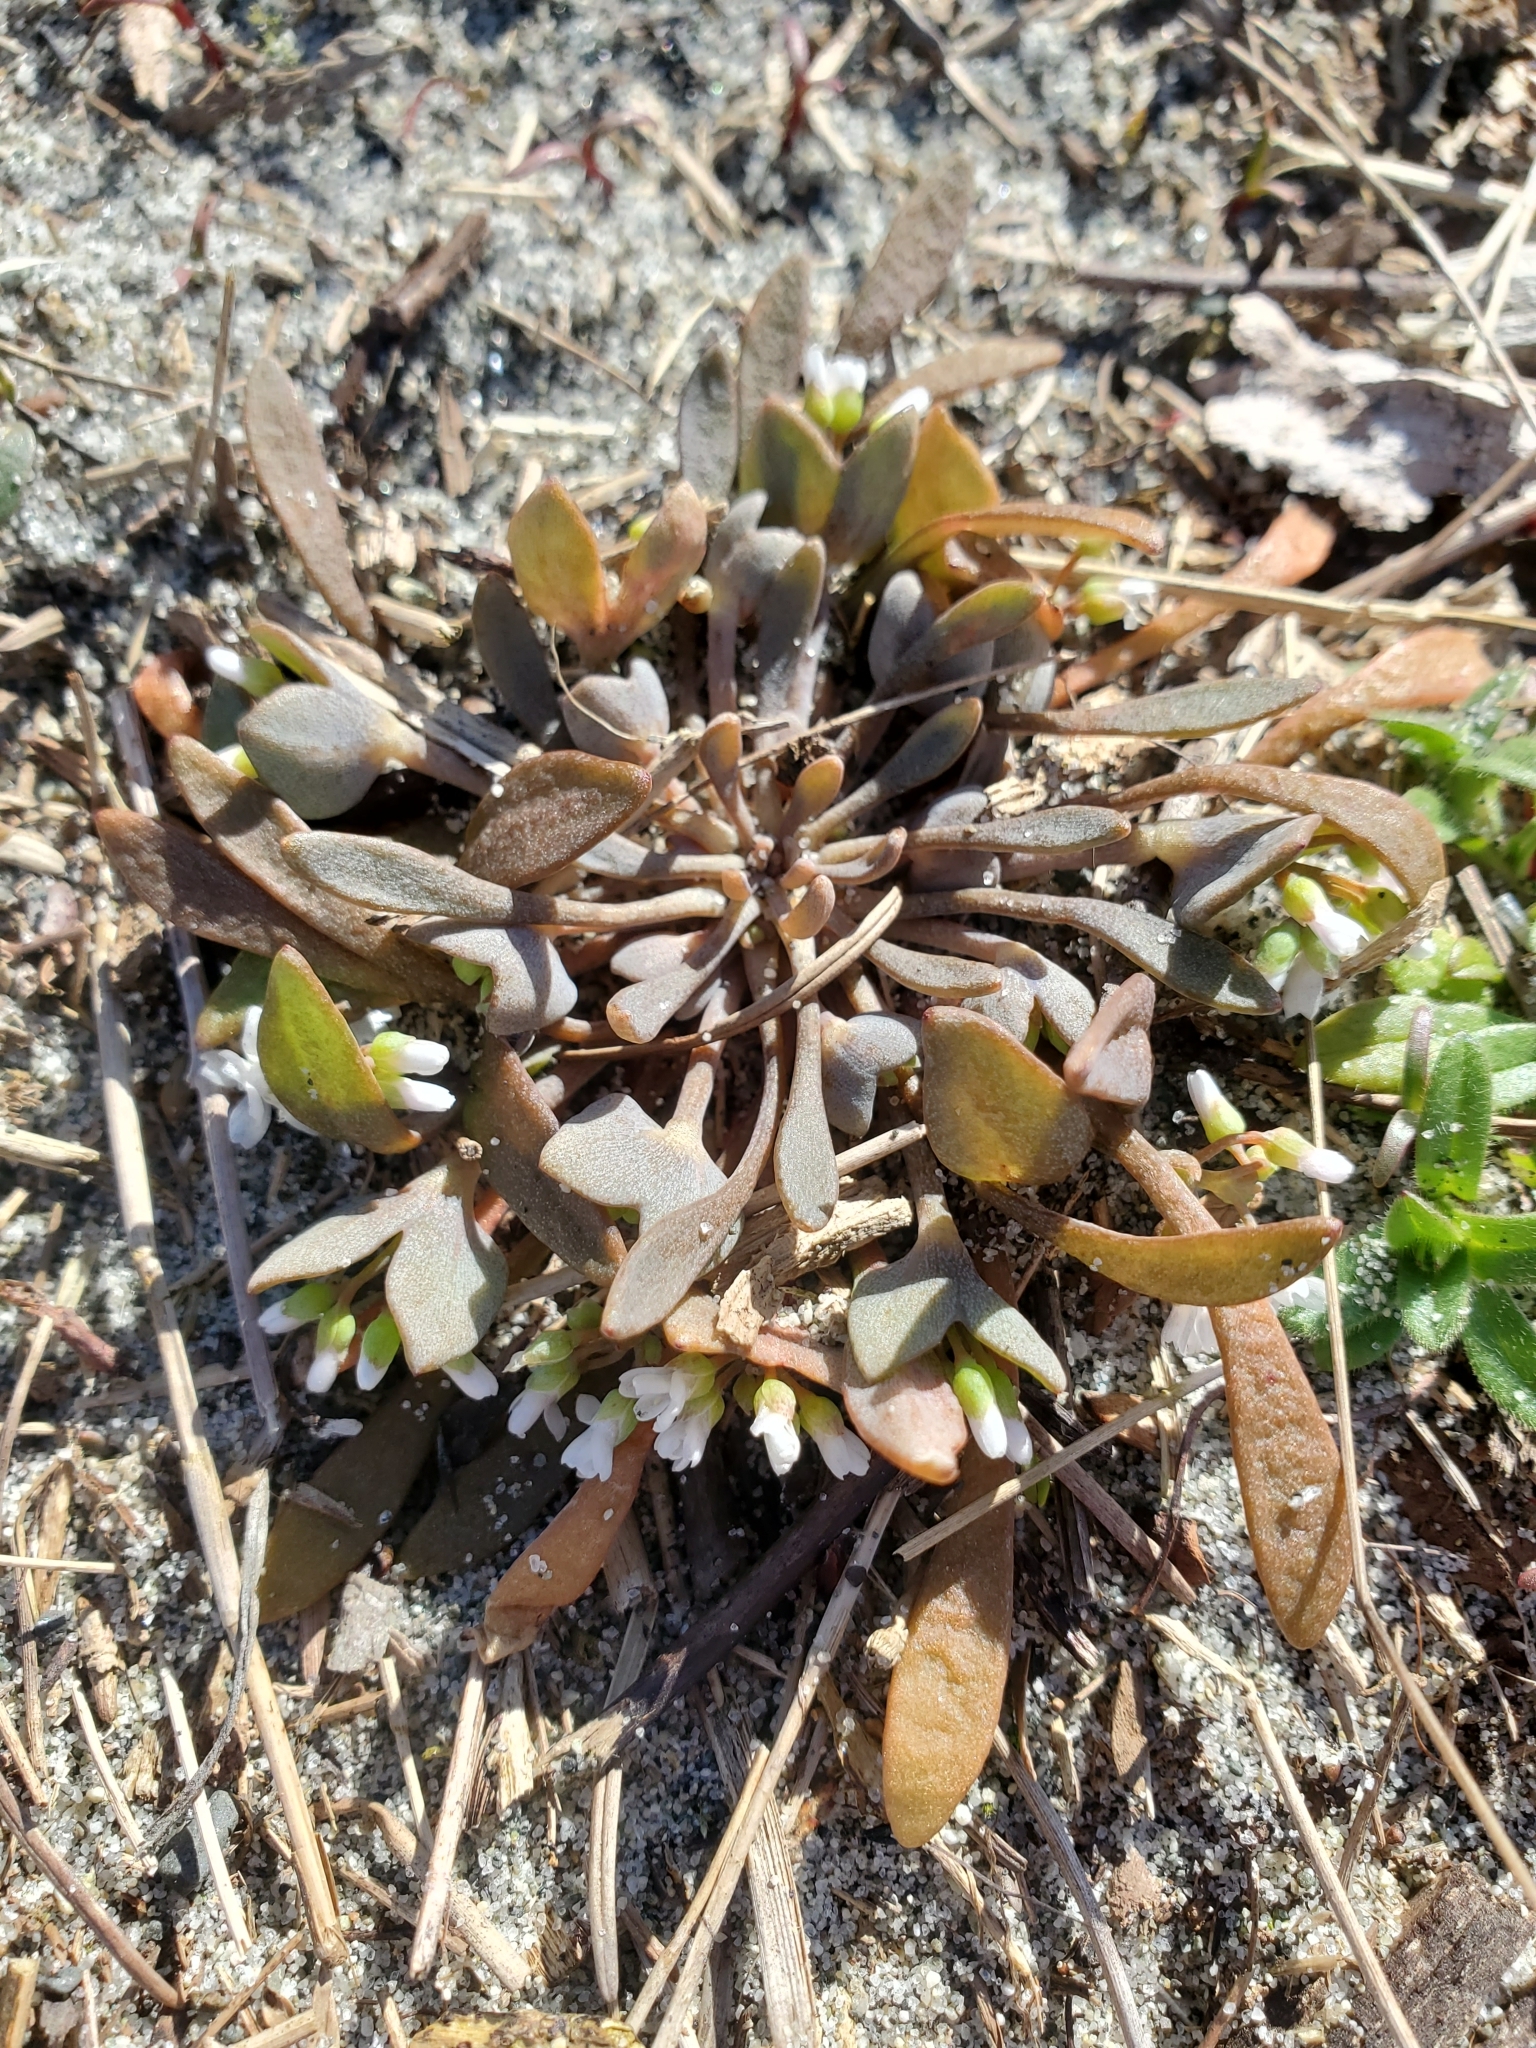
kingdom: Plantae
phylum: Tracheophyta
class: Magnoliopsida
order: Caryophyllales
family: Montiaceae
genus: Claytonia
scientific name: Claytonia exigua
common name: Pale spring beauty
